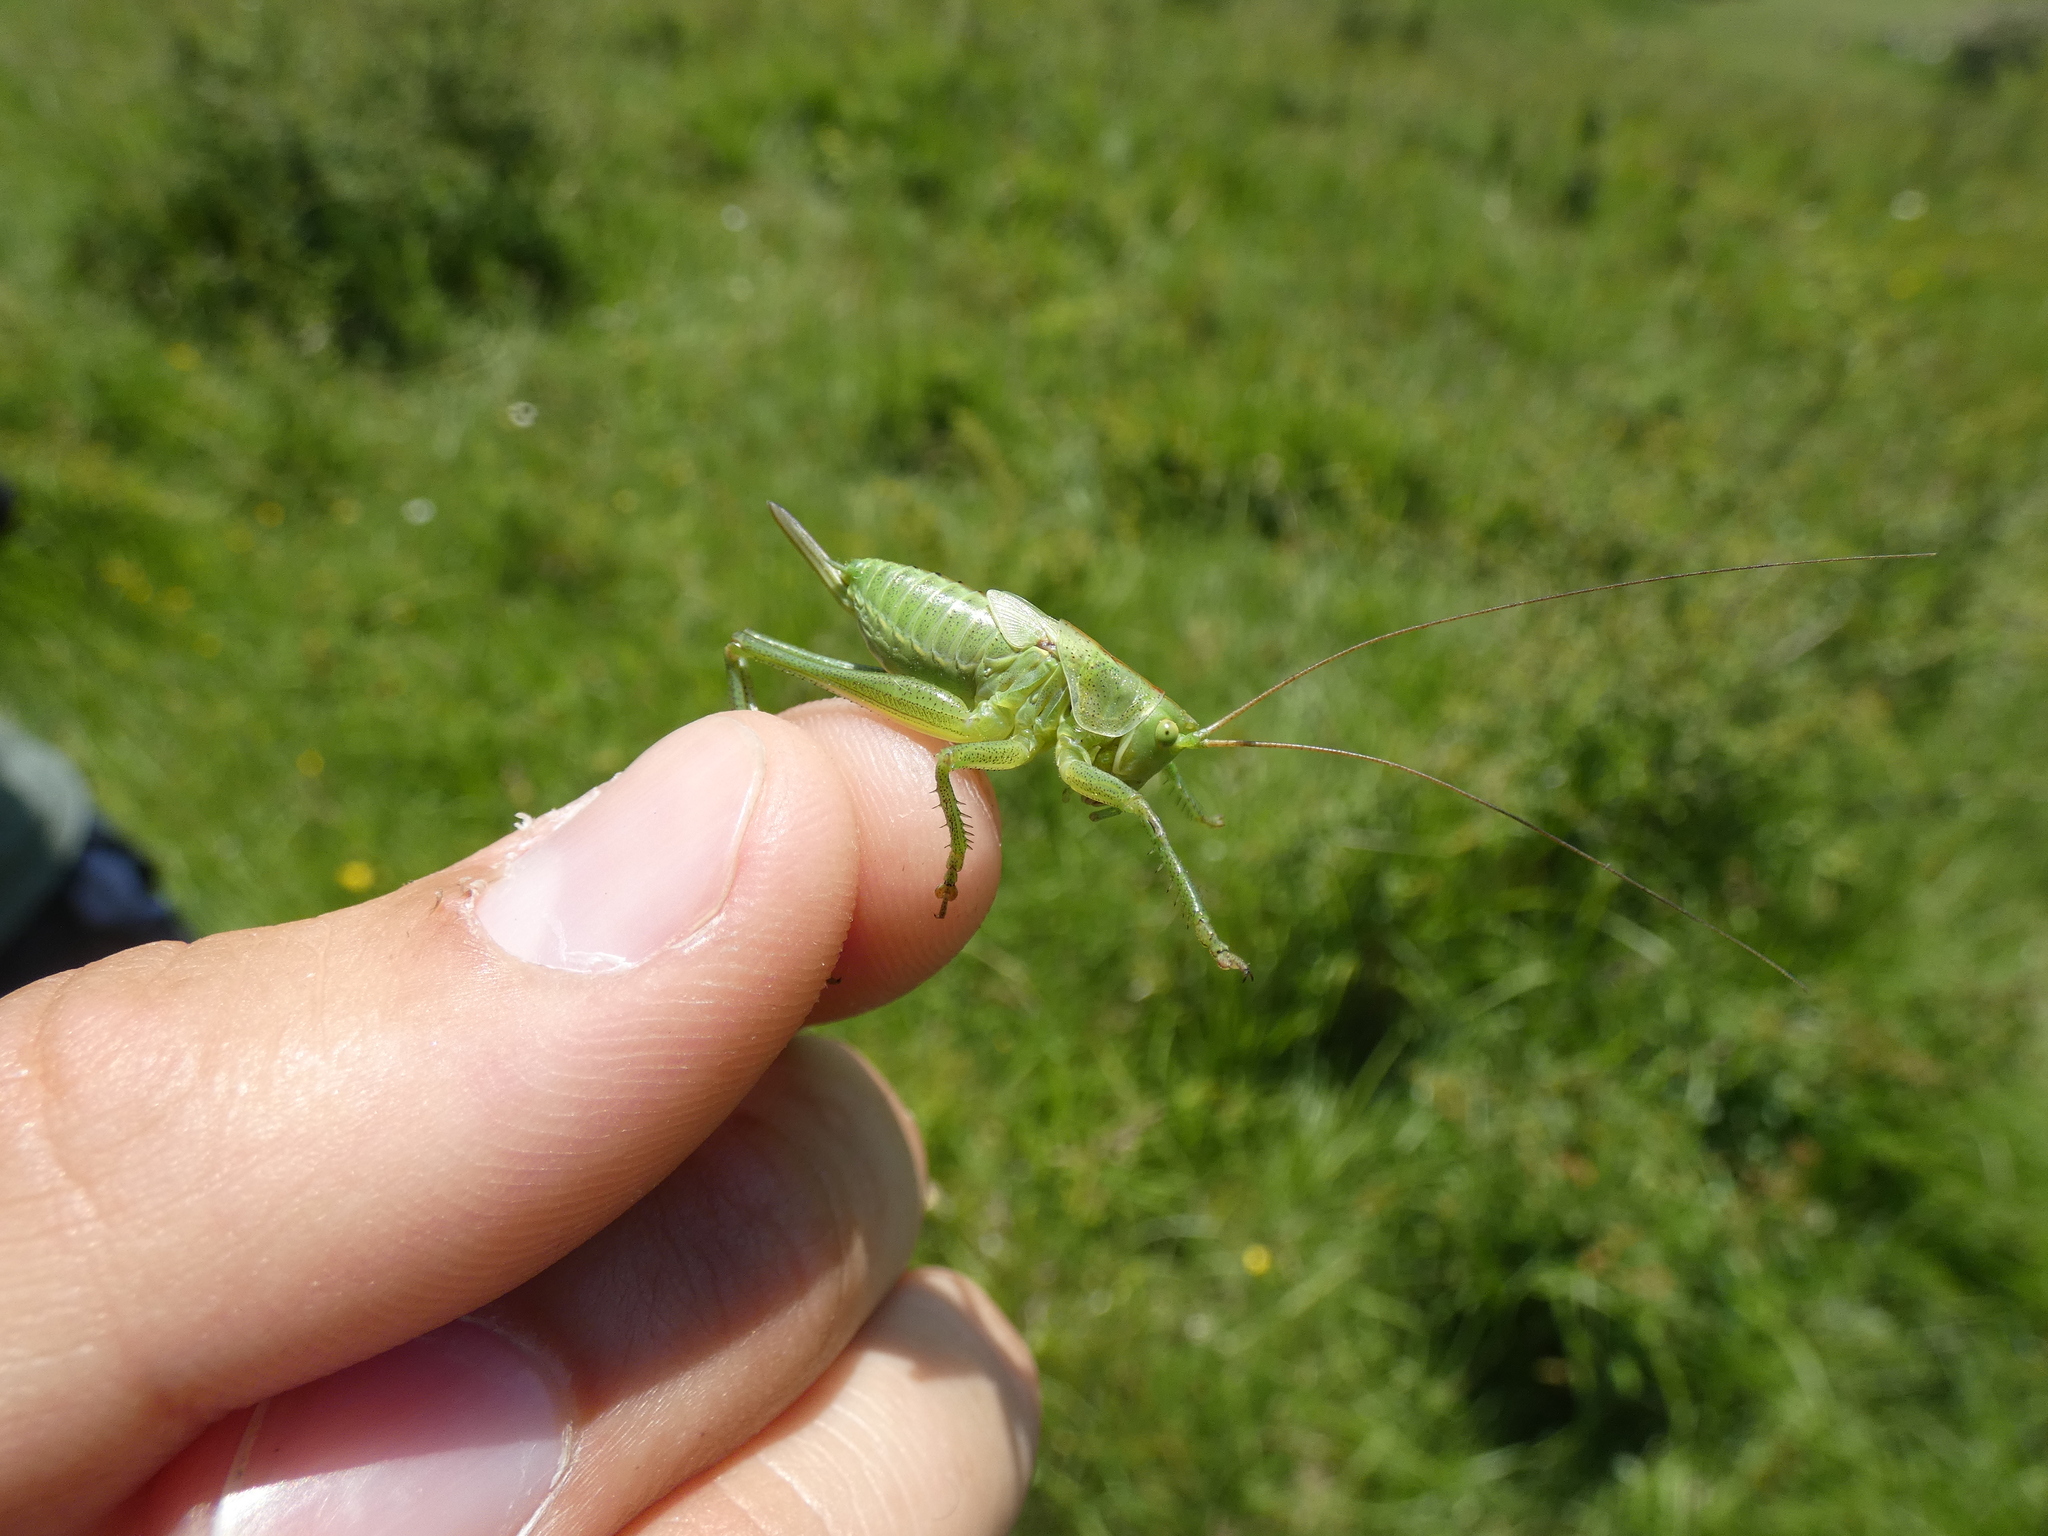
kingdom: Animalia
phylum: Arthropoda
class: Insecta
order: Orthoptera
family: Tettigoniidae
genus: Tettigonia
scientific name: Tettigonia viridissima
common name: Great green bush-cricket
